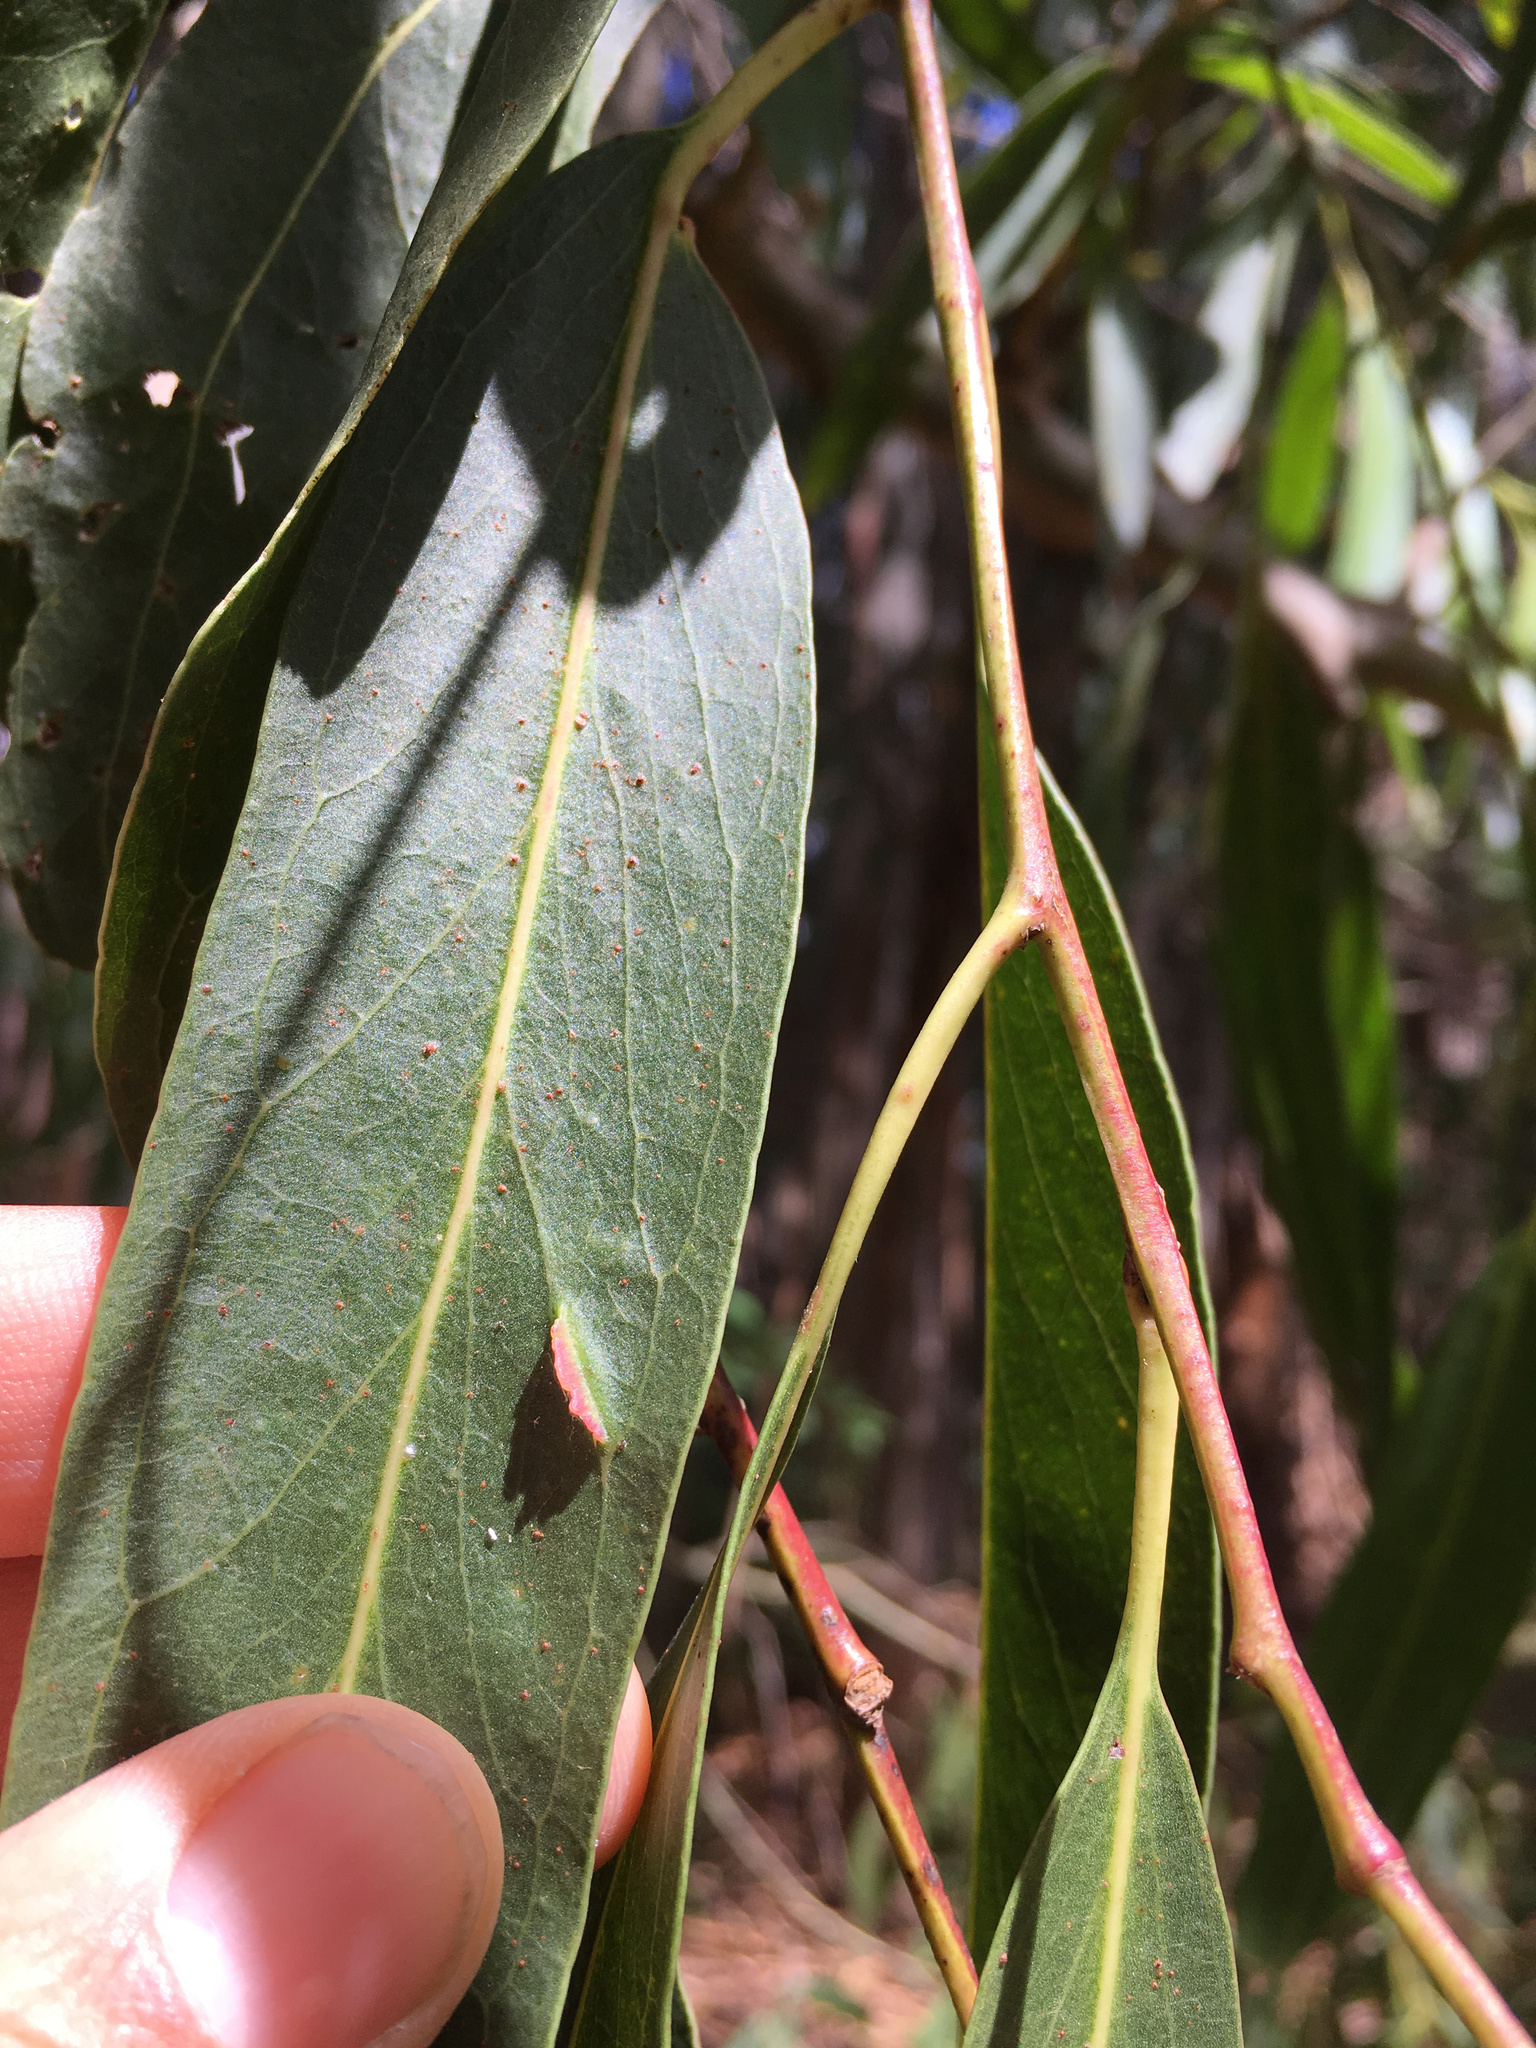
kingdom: Animalia
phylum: Arthropoda
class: Insecta
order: Hymenoptera
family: Pteromalidae
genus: Nambouria
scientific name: Nambouria xanthops
